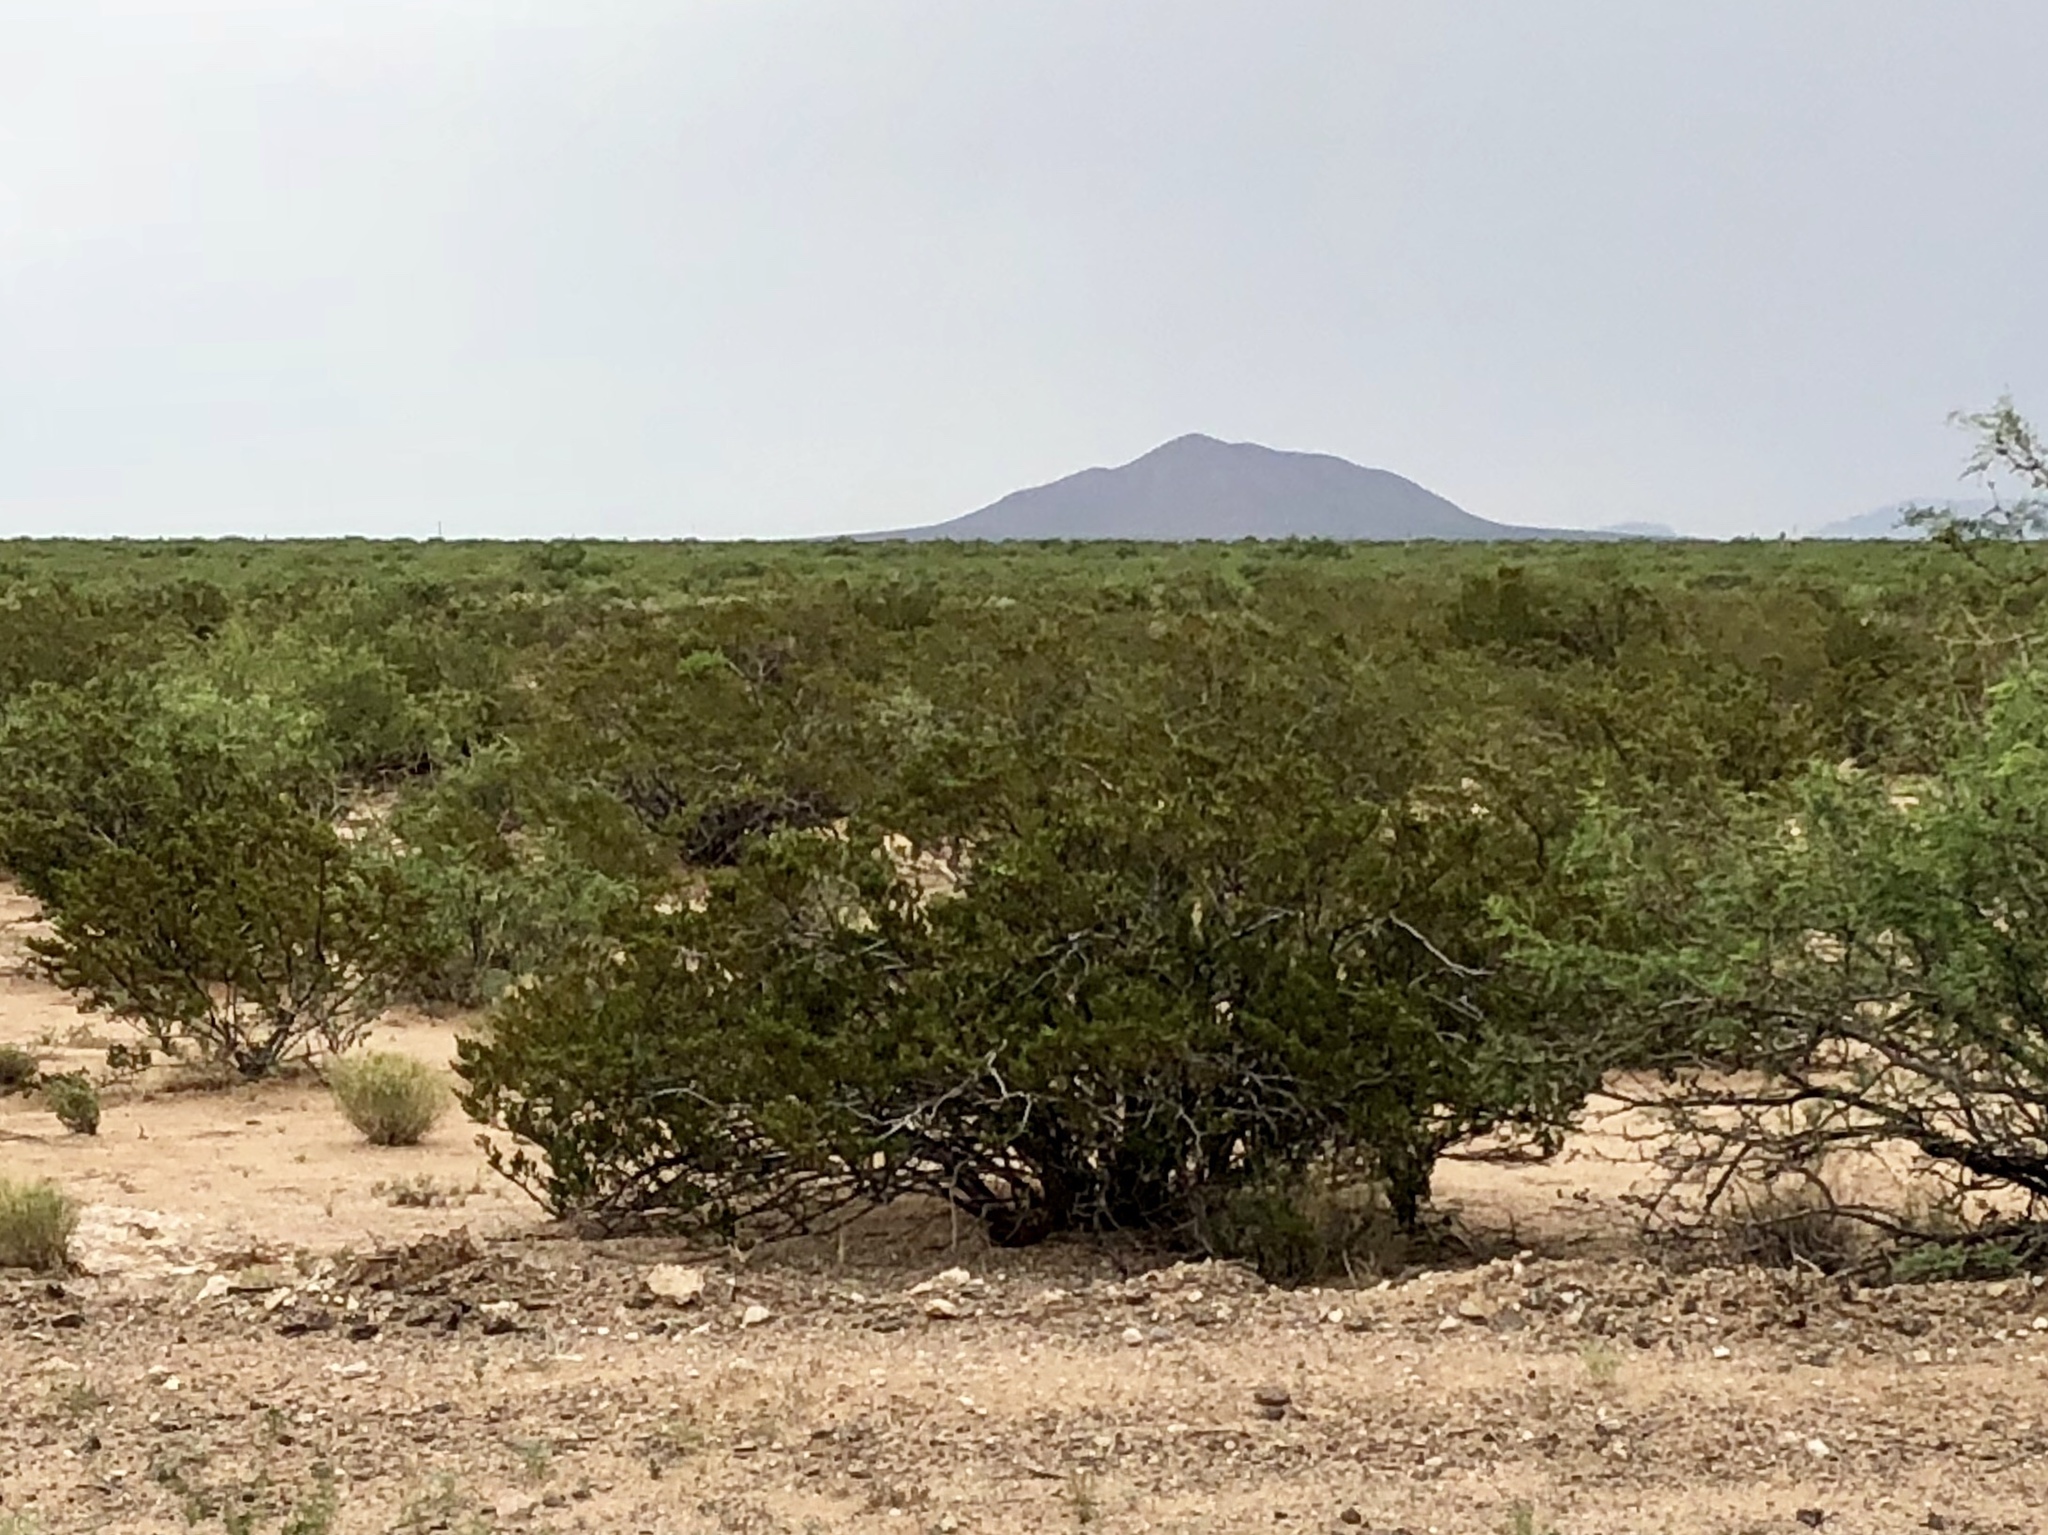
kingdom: Plantae
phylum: Tracheophyta
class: Magnoliopsida
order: Zygophyllales
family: Zygophyllaceae
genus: Larrea
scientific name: Larrea tridentata
